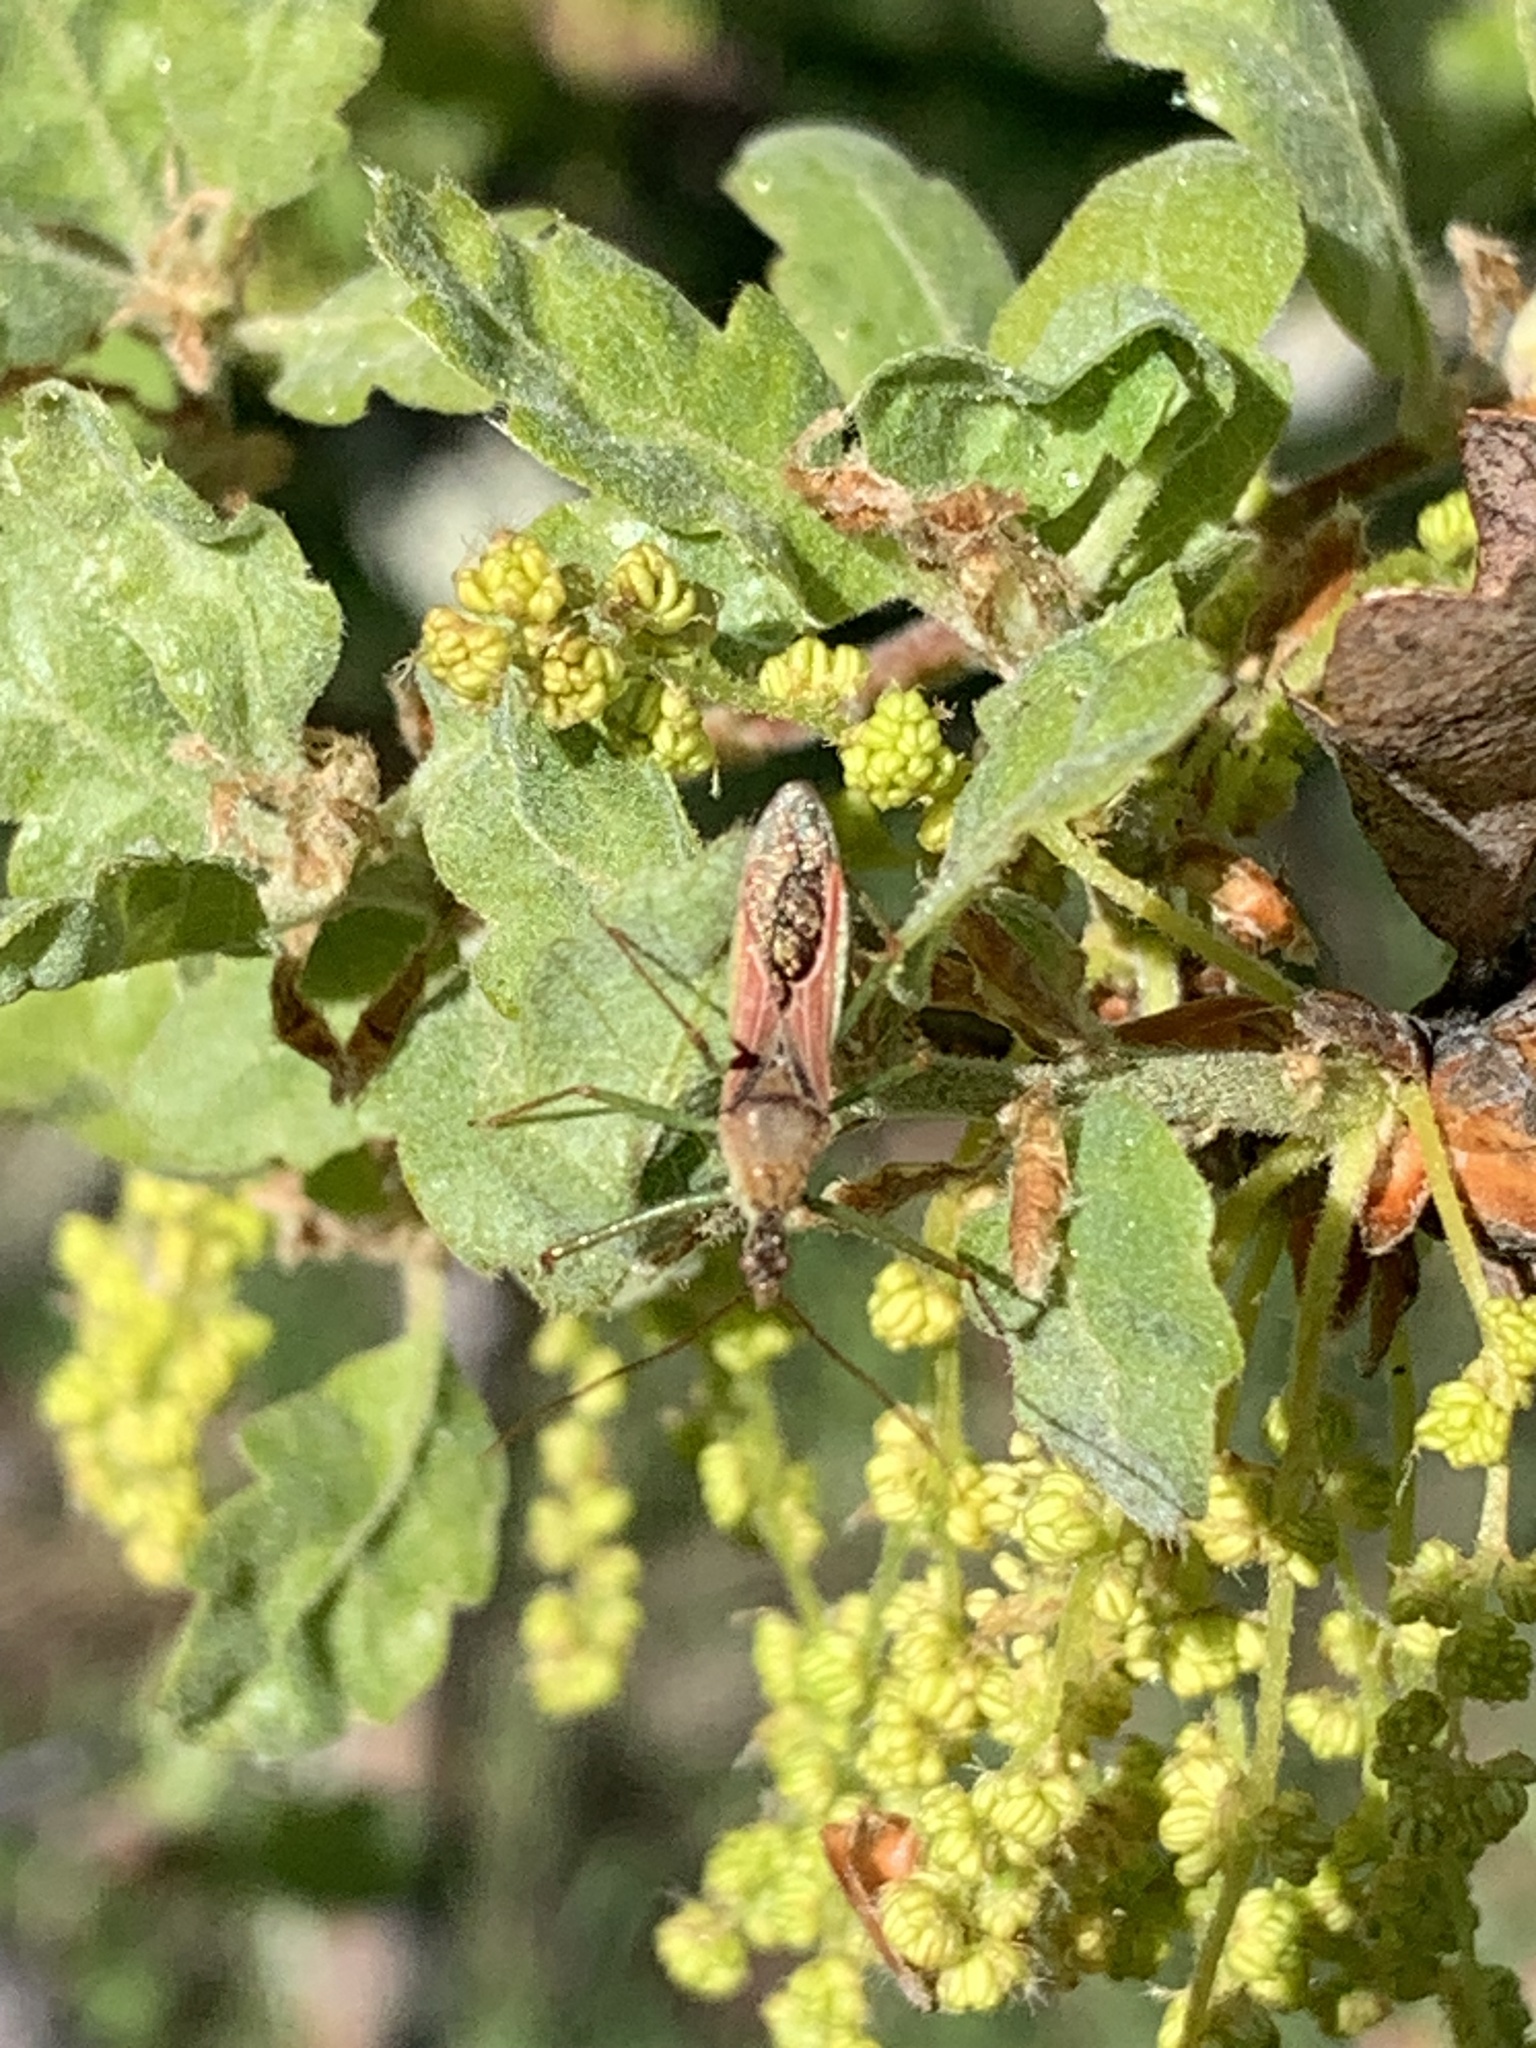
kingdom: Animalia
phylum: Arthropoda
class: Insecta
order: Hemiptera
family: Reduviidae
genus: Zelus
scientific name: Zelus renardii
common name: Assassin bug
